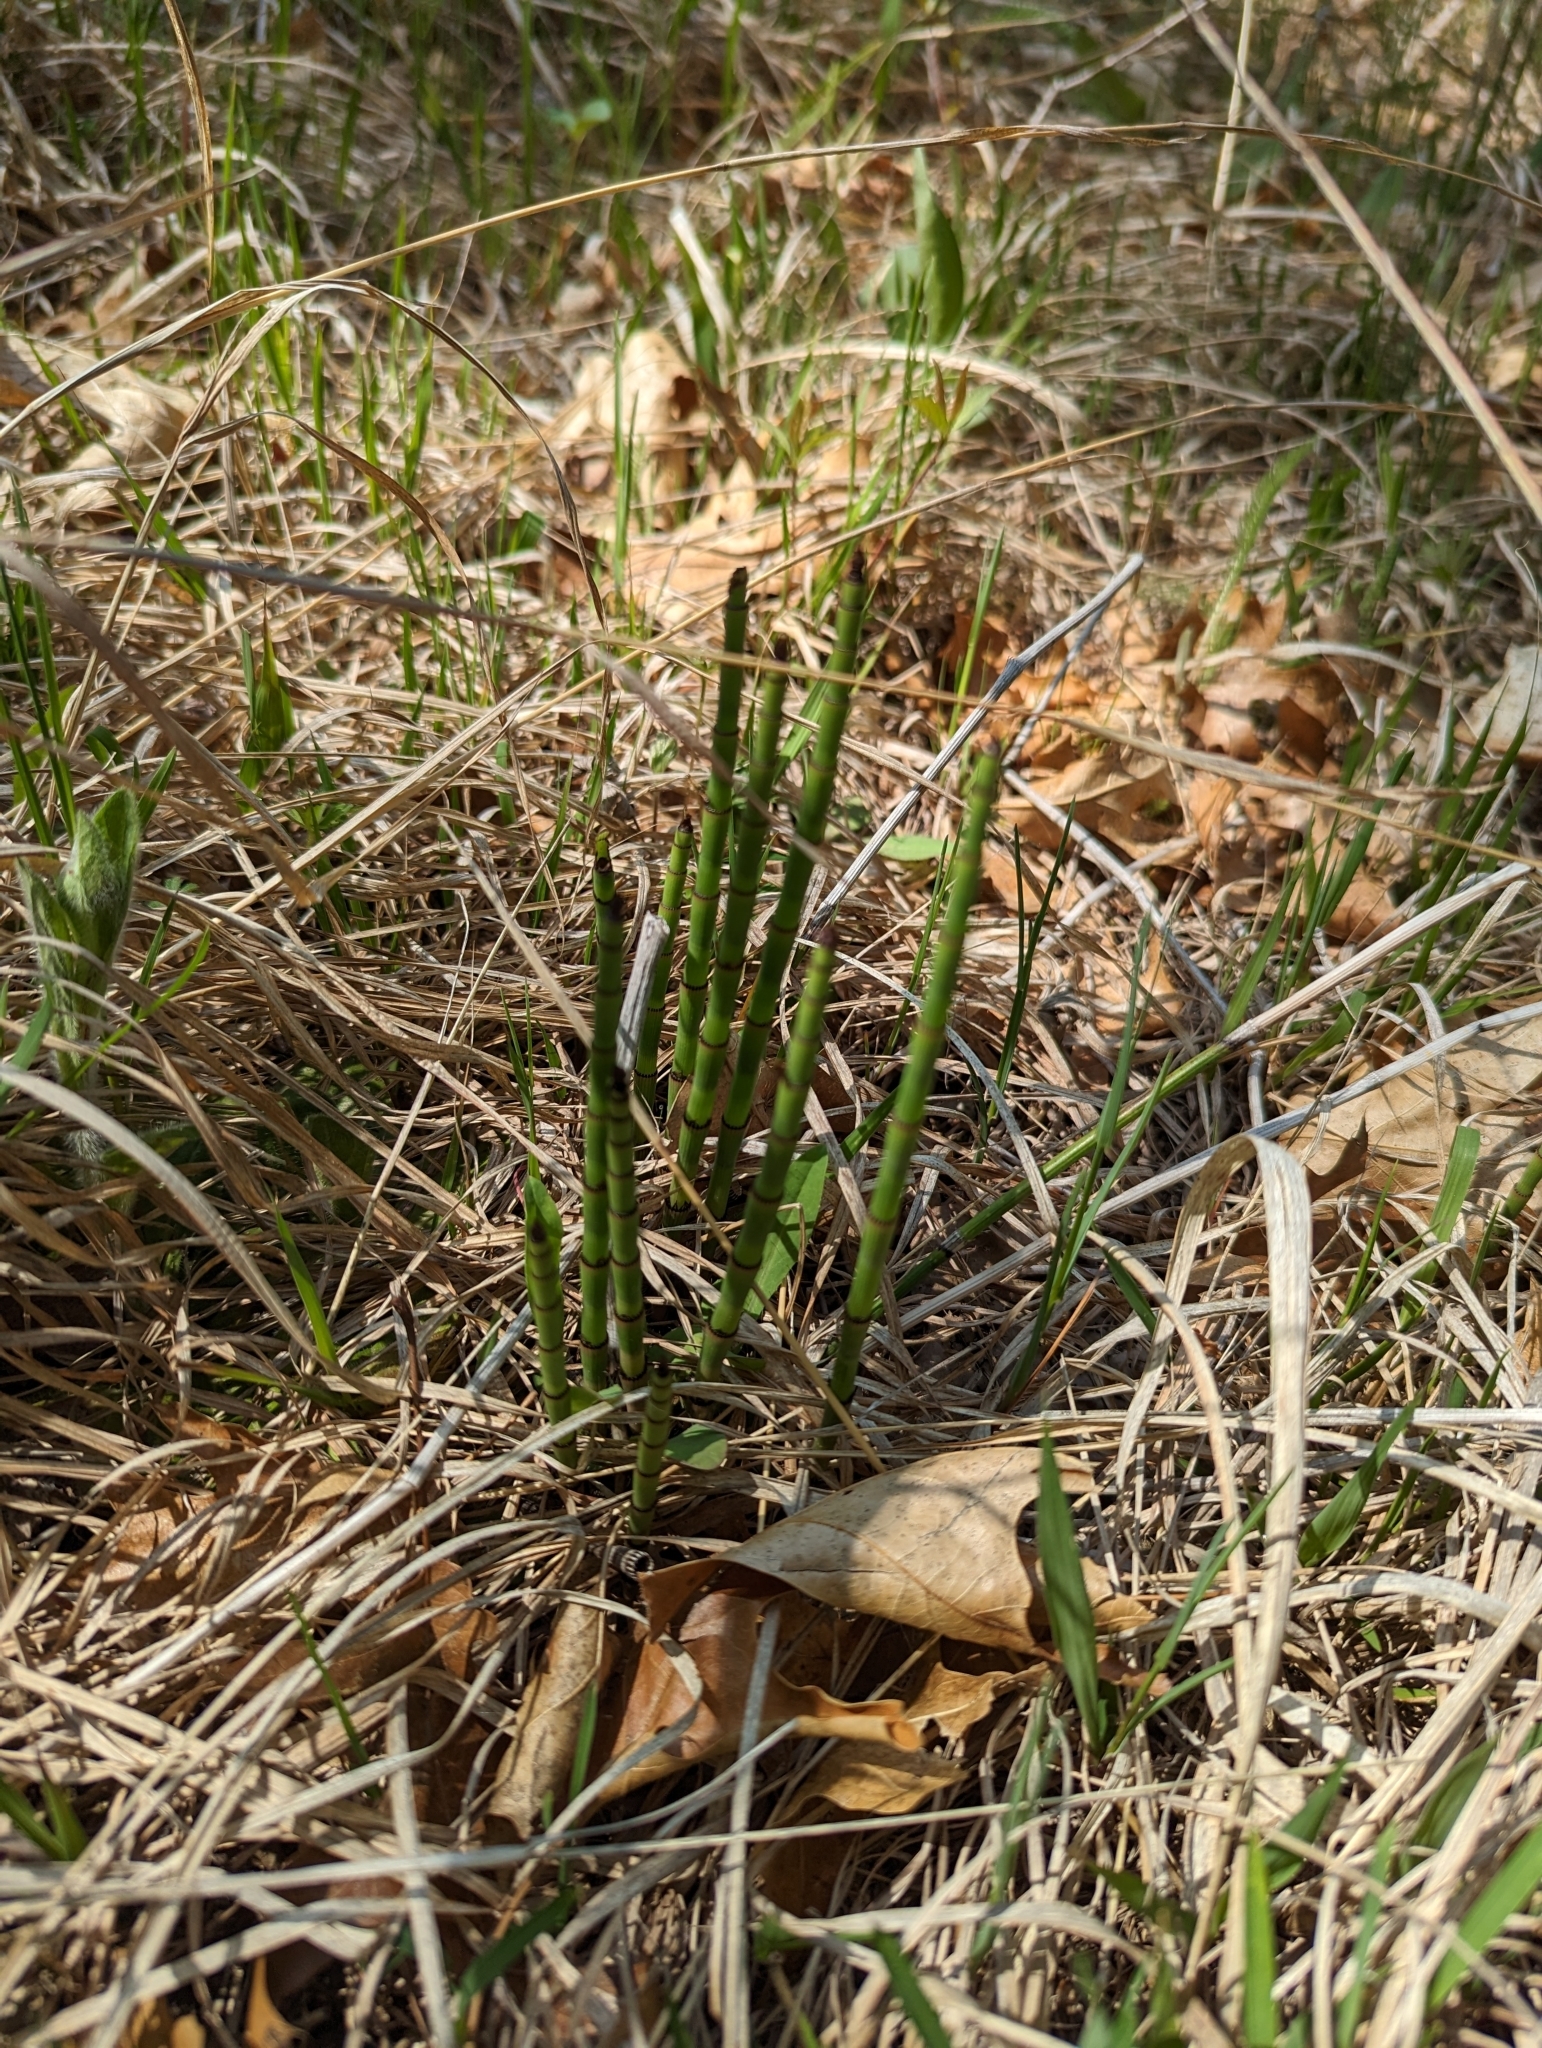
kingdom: Plantae
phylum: Tracheophyta
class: Polypodiopsida
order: Equisetales
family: Equisetaceae
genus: Equisetum
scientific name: Equisetum praealtum
